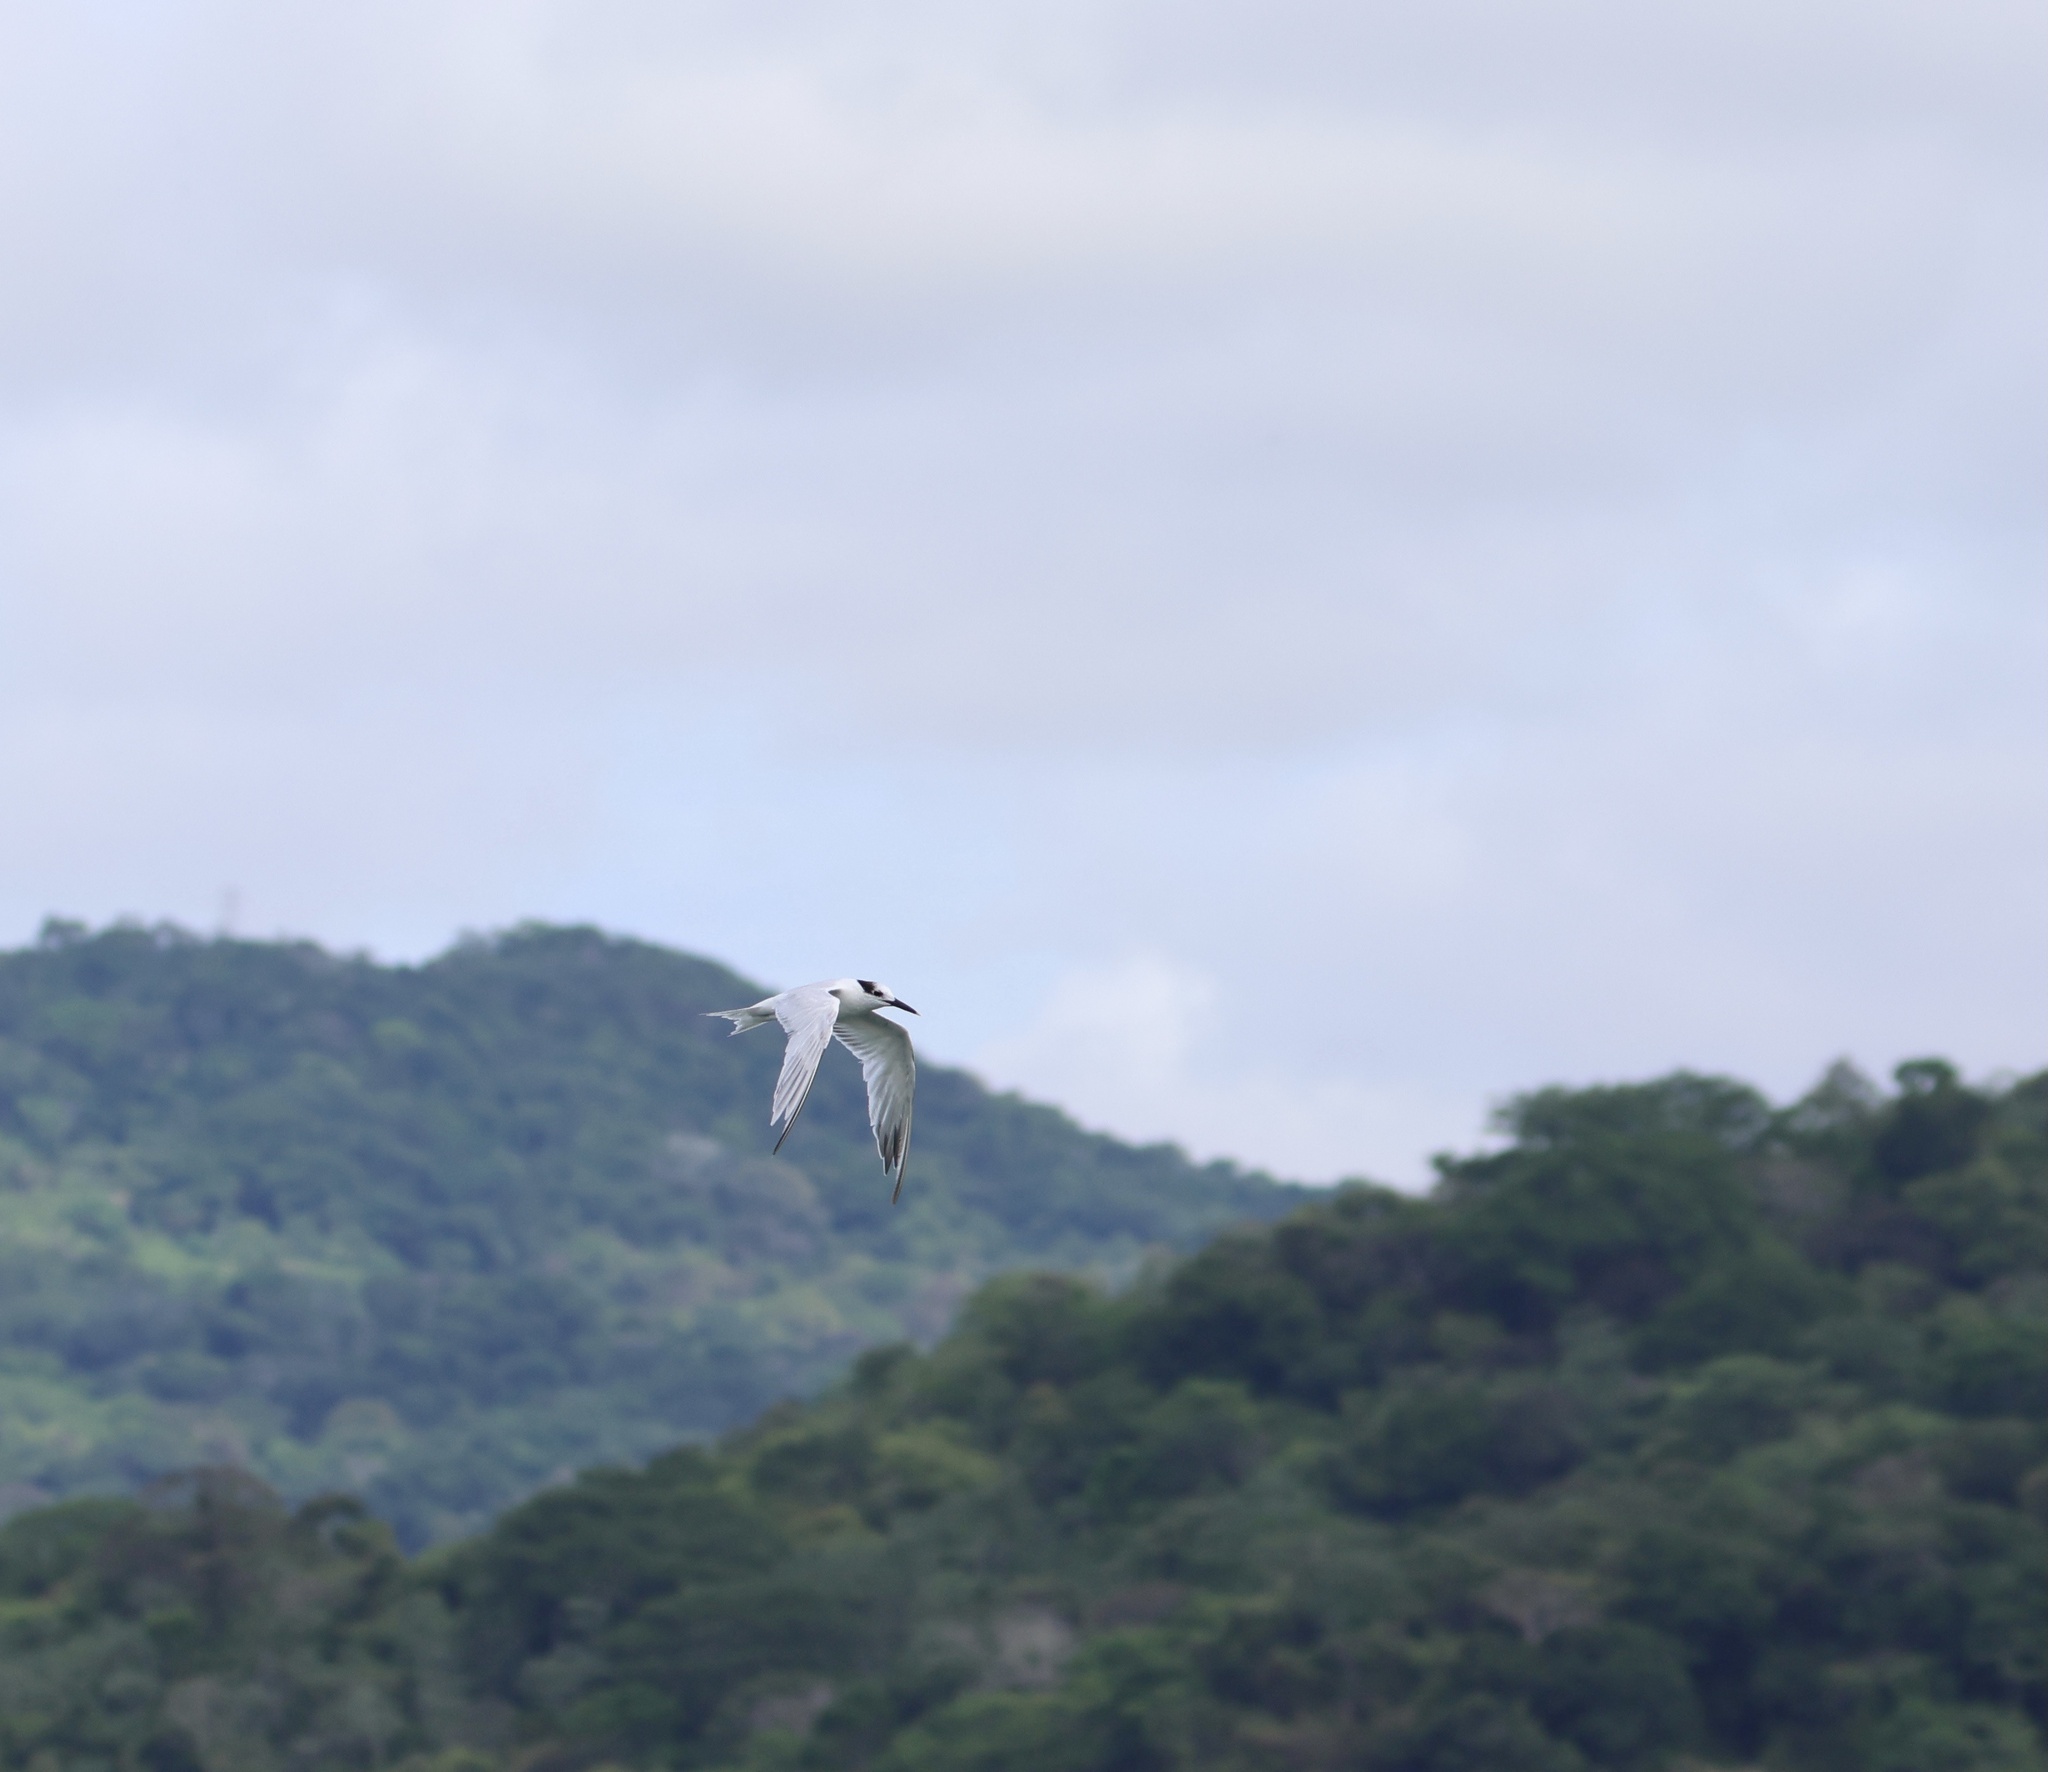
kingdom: Animalia
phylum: Chordata
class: Aves
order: Charadriiformes
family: Laridae
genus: Thalasseus
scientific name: Thalasseus sandvicensis
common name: Sandwich tern
